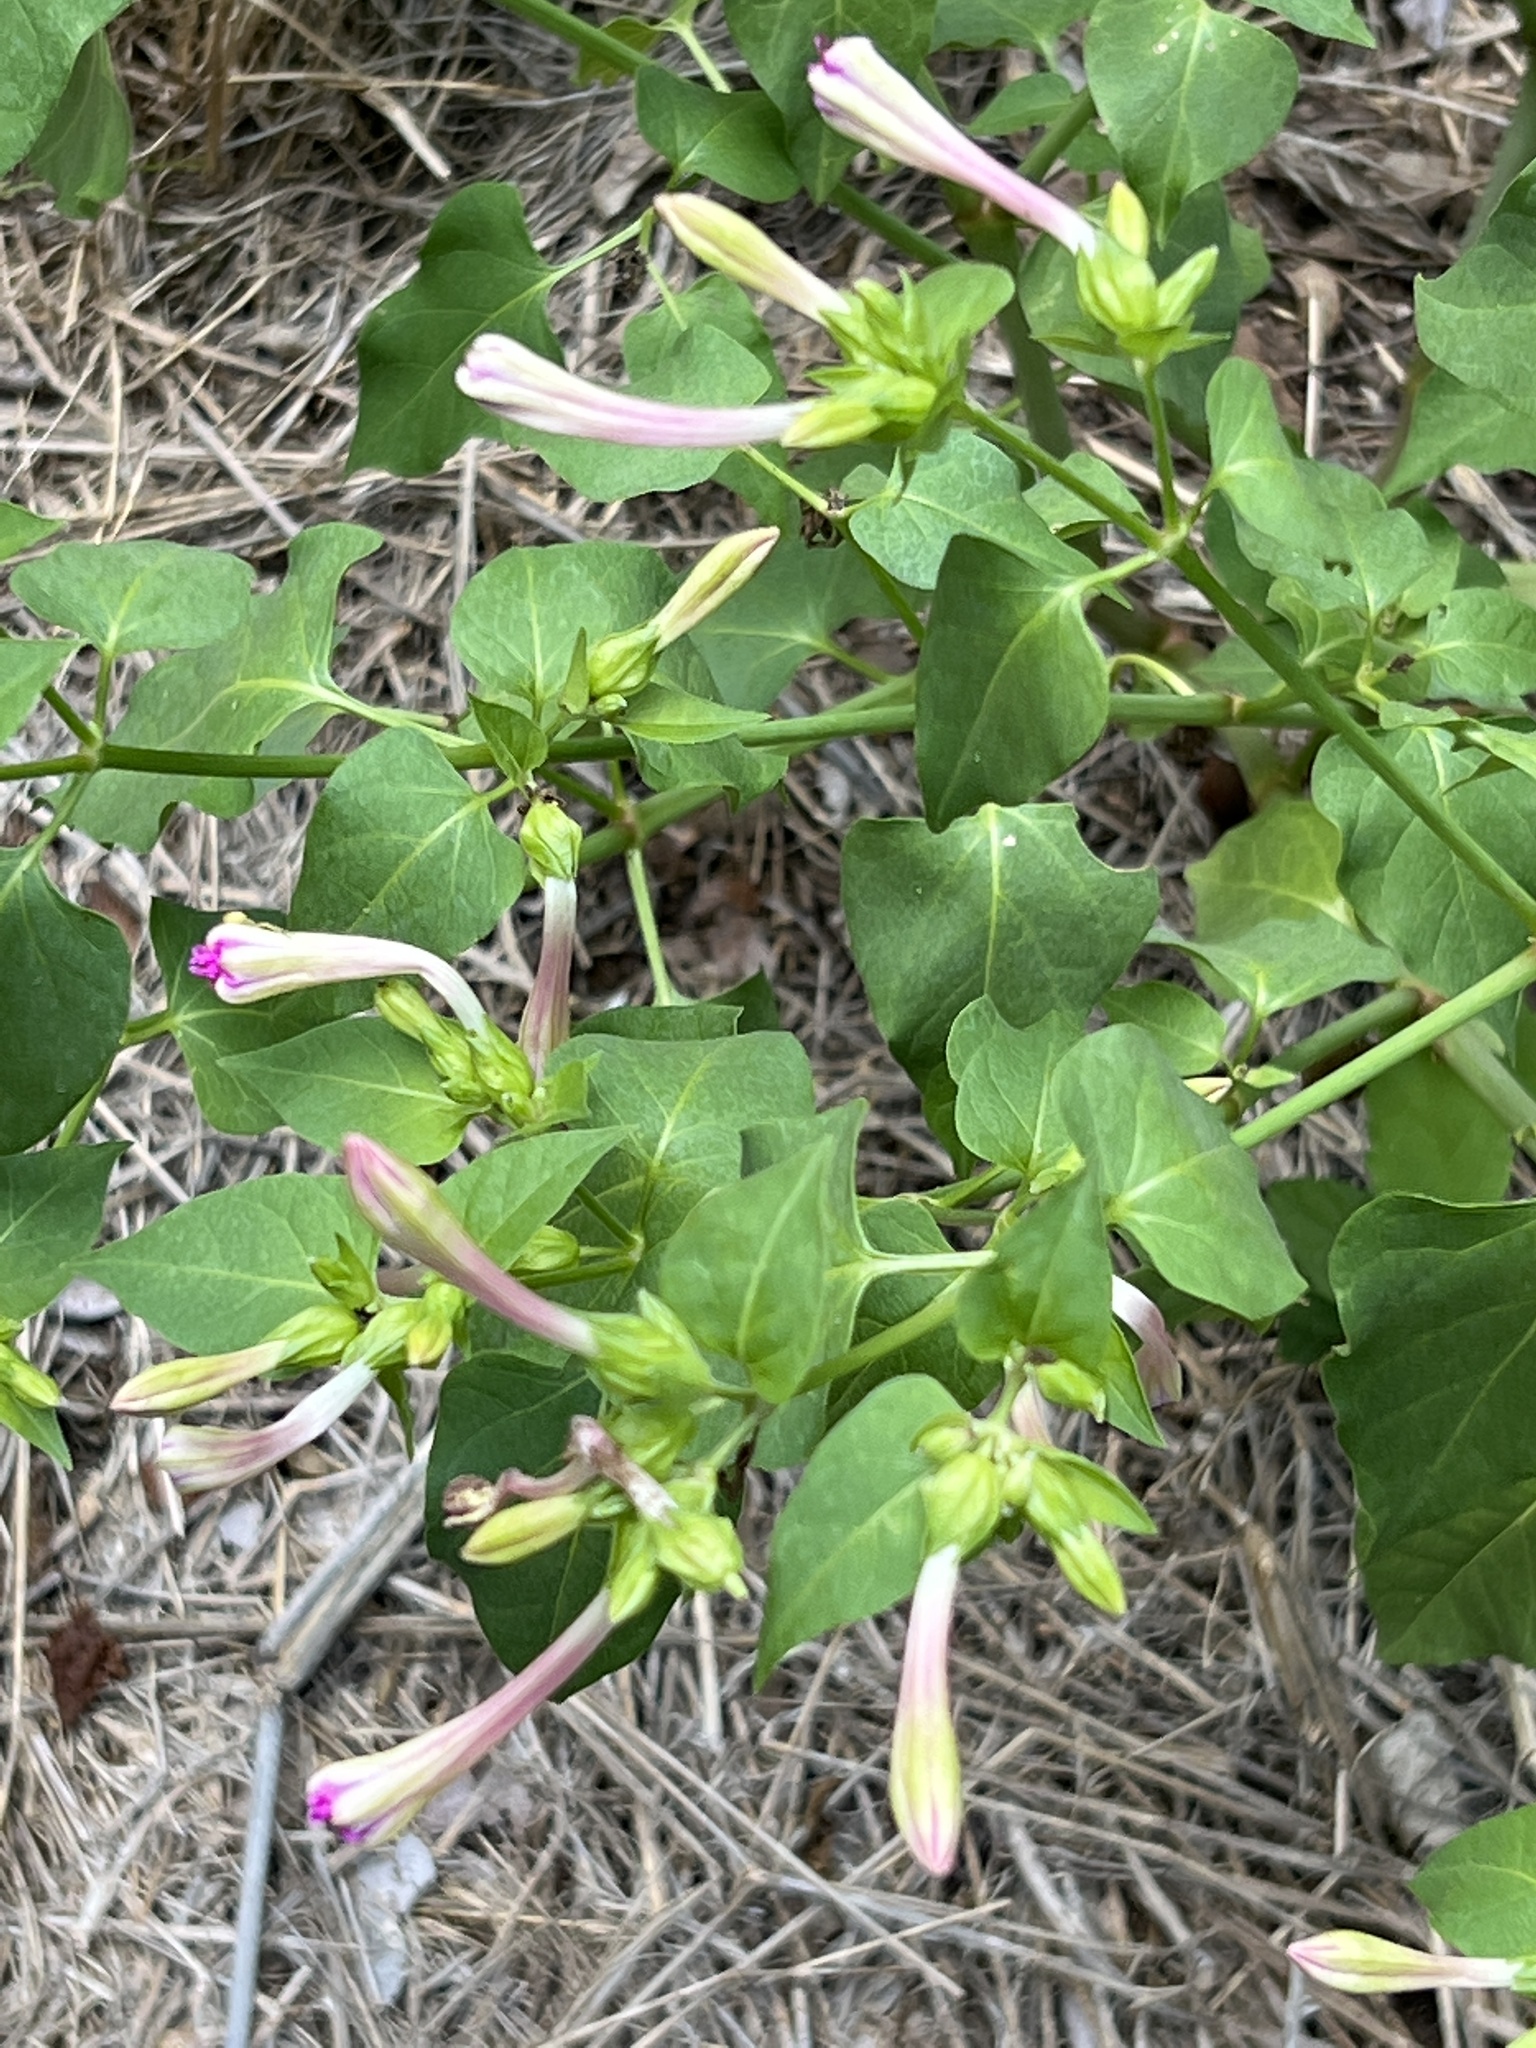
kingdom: Plantae
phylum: Tracheophyta
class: Magnoliopsida
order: Caryophyllales
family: Nyctaginaceae
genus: Mirabilis
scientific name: Mirabilis jalapa
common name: Marvel-of-peru
